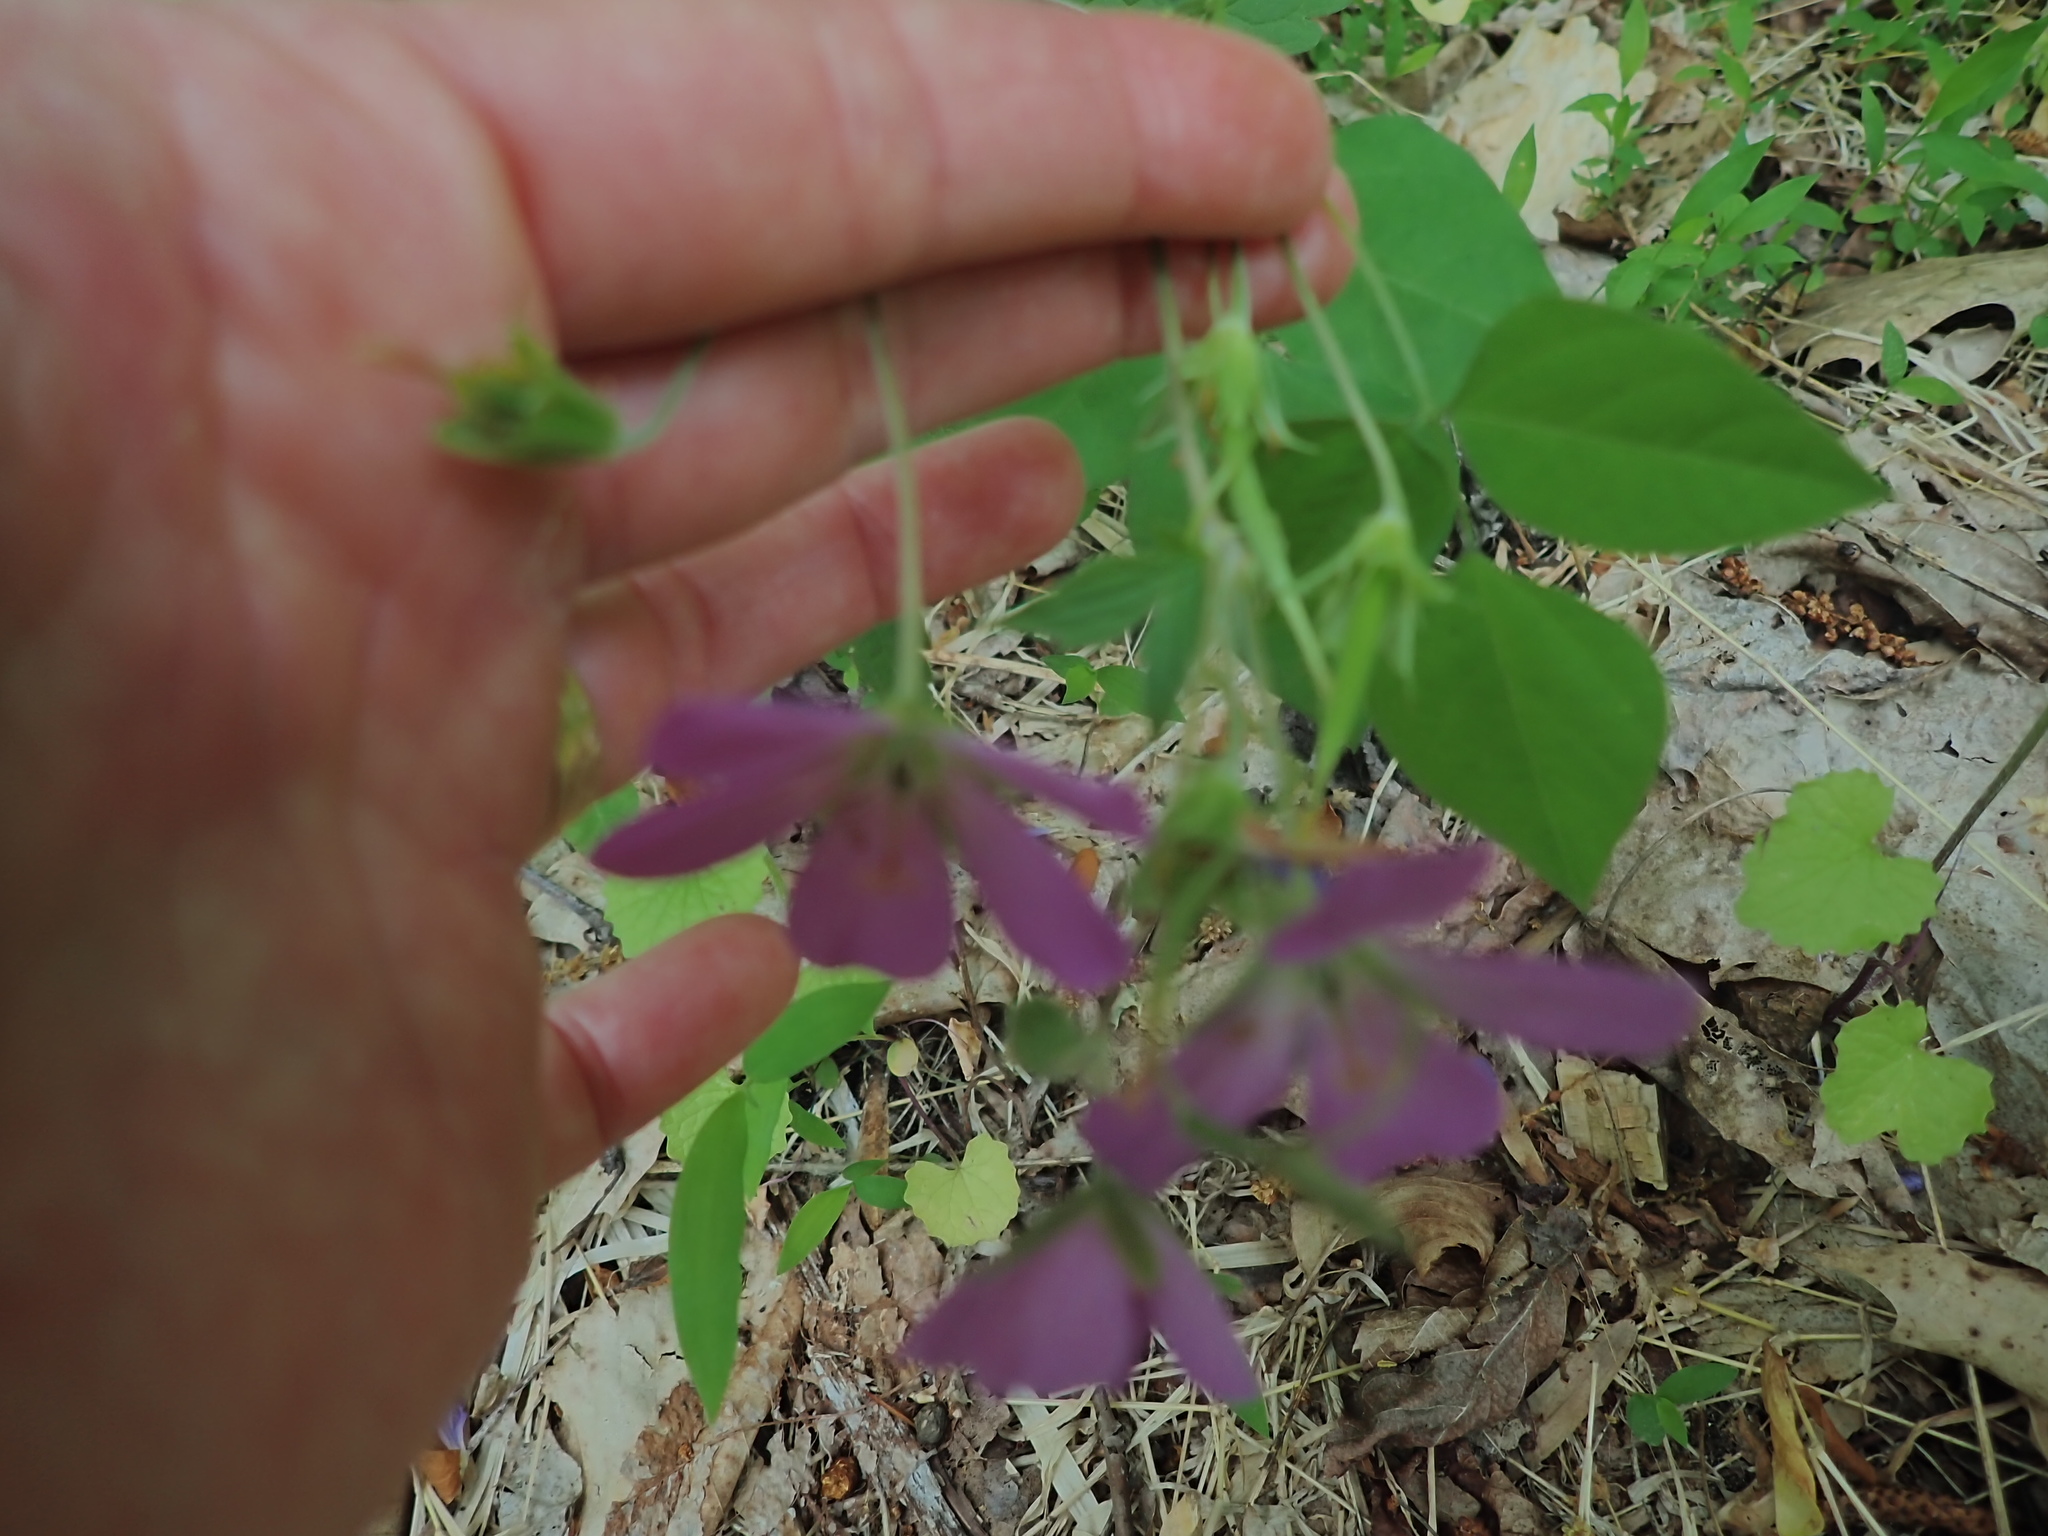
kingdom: Plantae
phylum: Tracheophyta
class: Magnoliopsida
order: Geraniales
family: Geraniaceae
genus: Geranium
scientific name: Geranium maculatum
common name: Spotted geranium
